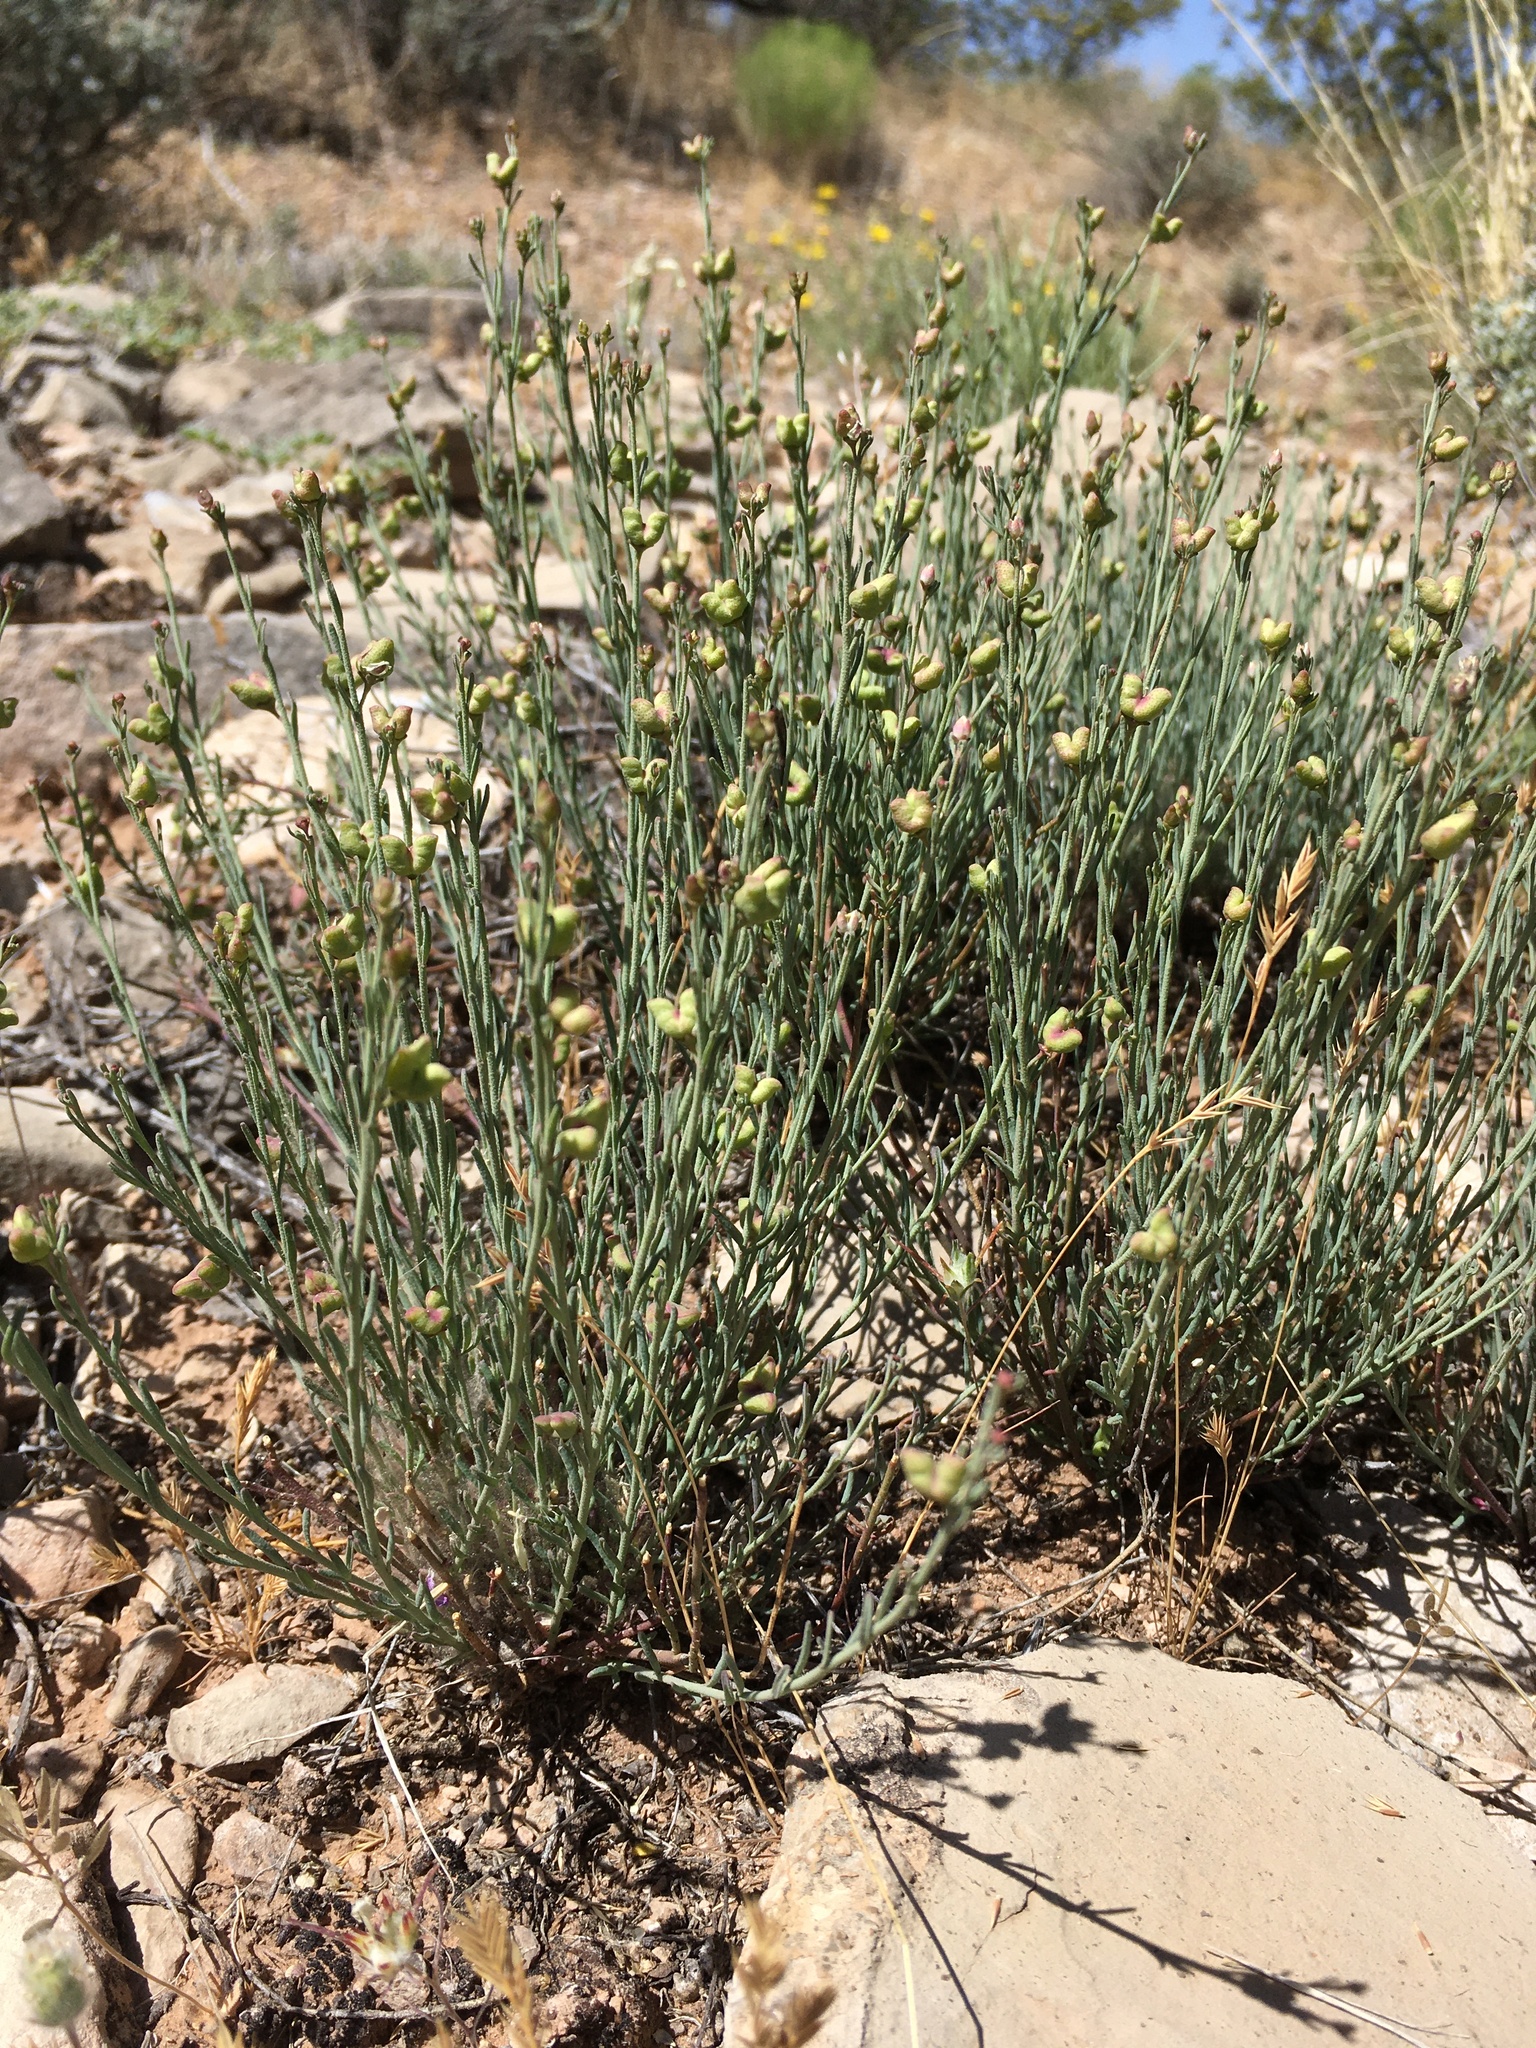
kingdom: Plantae
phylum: Tracheophyta
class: Magnoliopsida
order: Sapindales
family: Rutaceae
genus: Thamnosma
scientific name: Thamnosma texana
